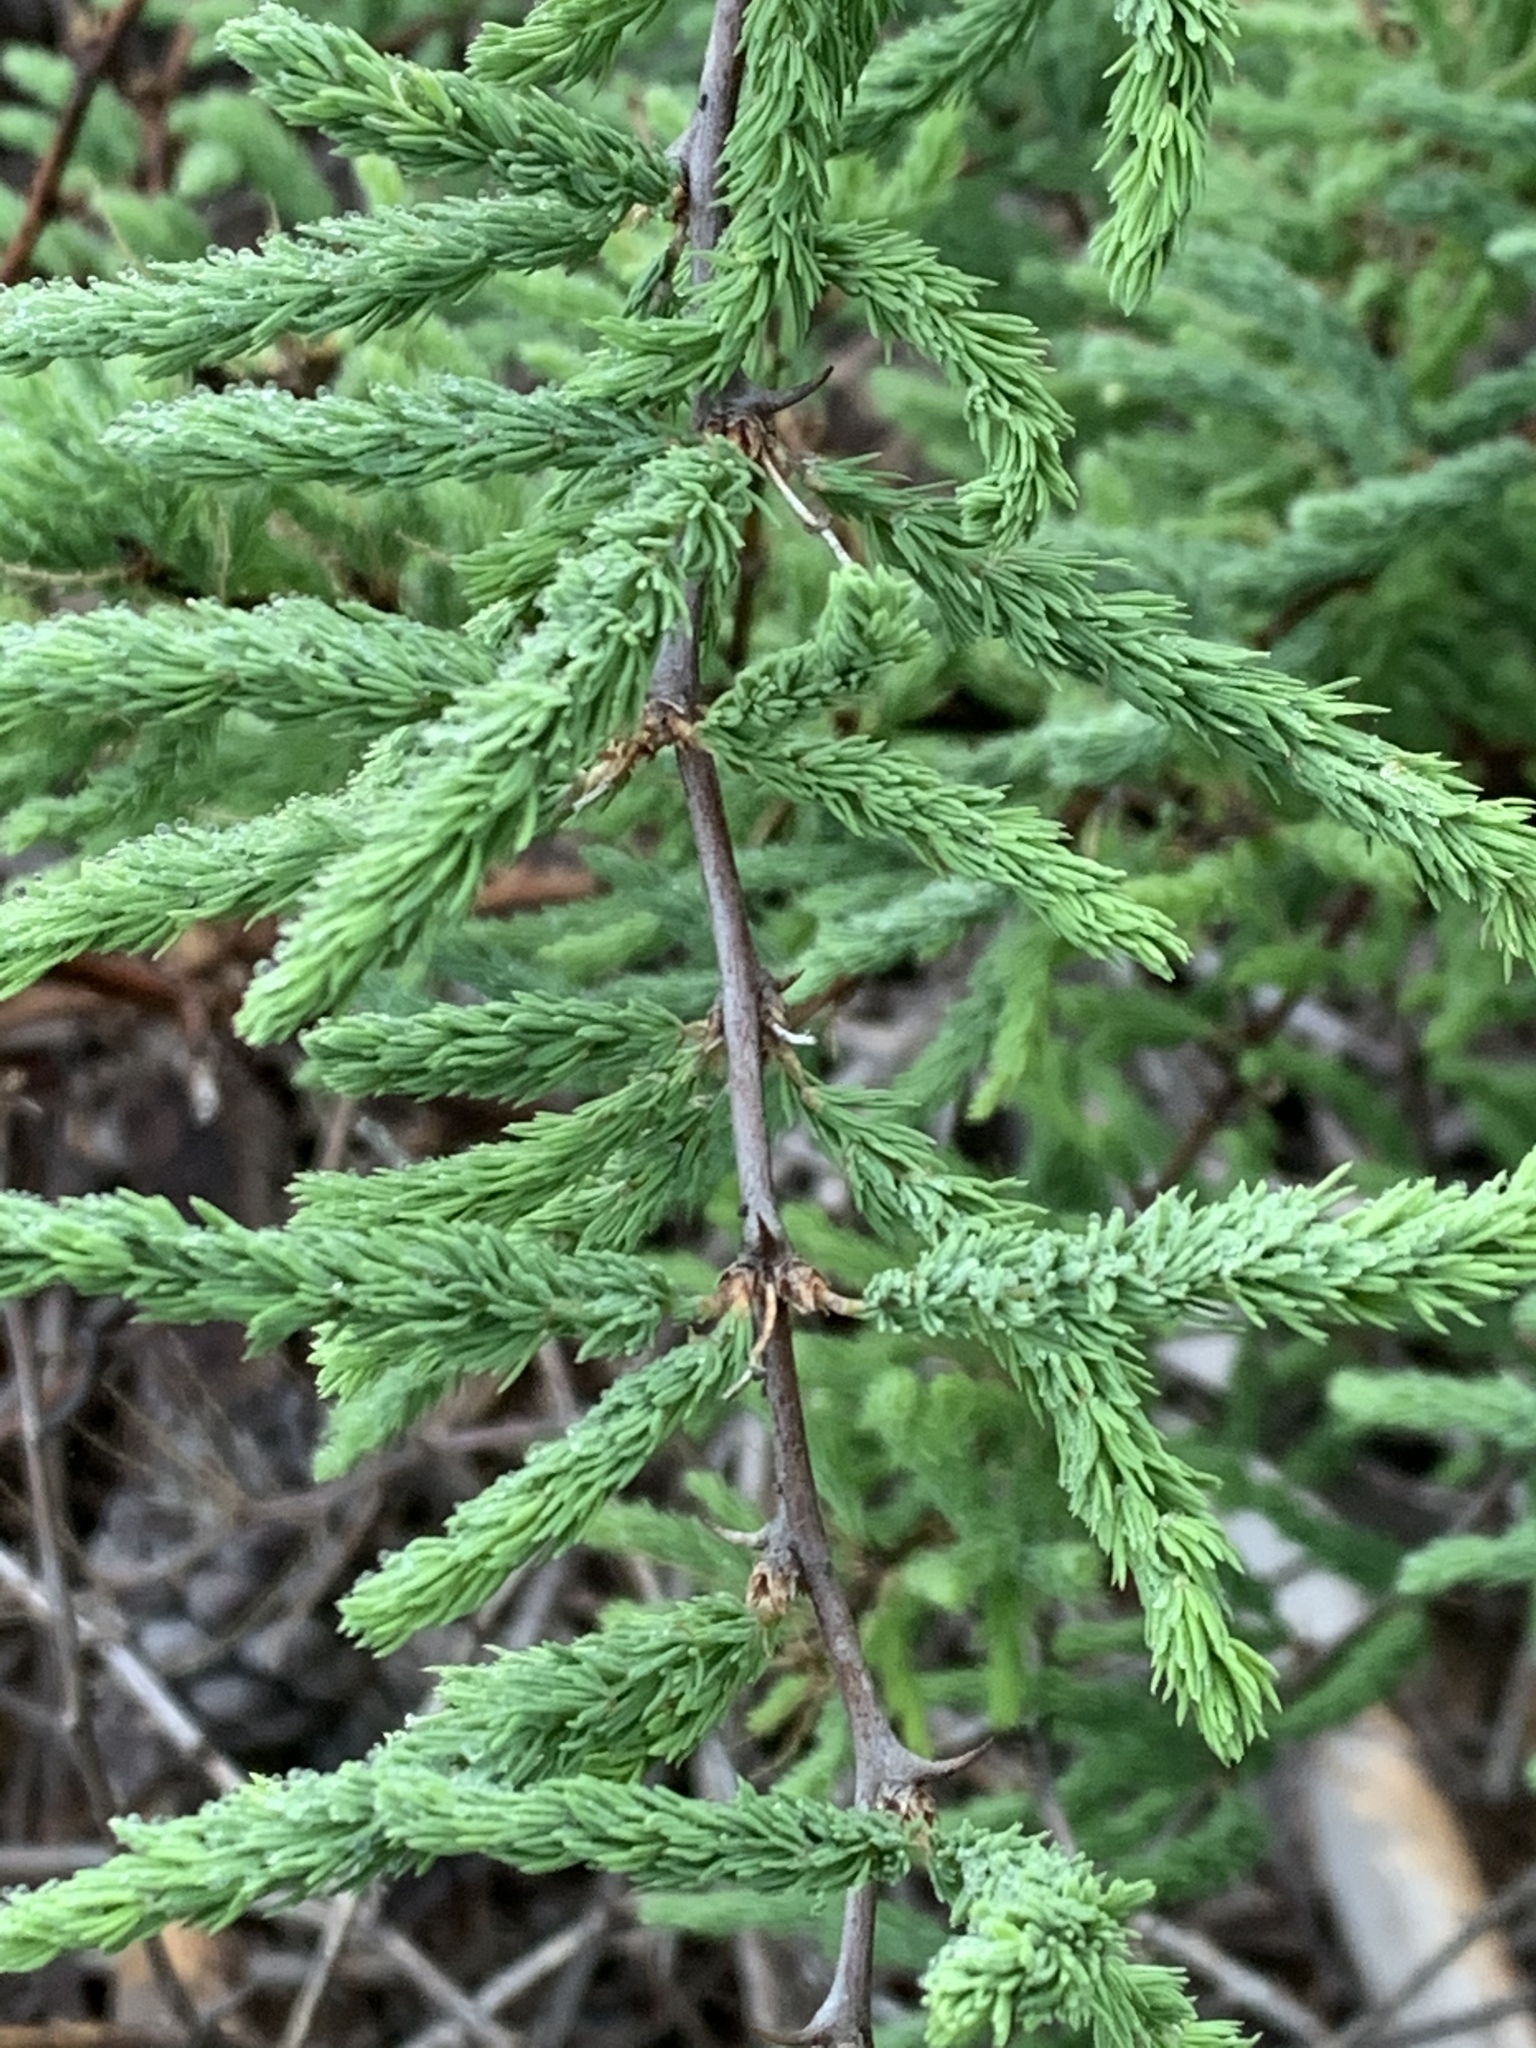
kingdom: Plantae
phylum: Tracheophyta
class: Liliopsida
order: Asparagales
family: Asparagaceae
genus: Asparagus
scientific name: Asparagus rubicundus
